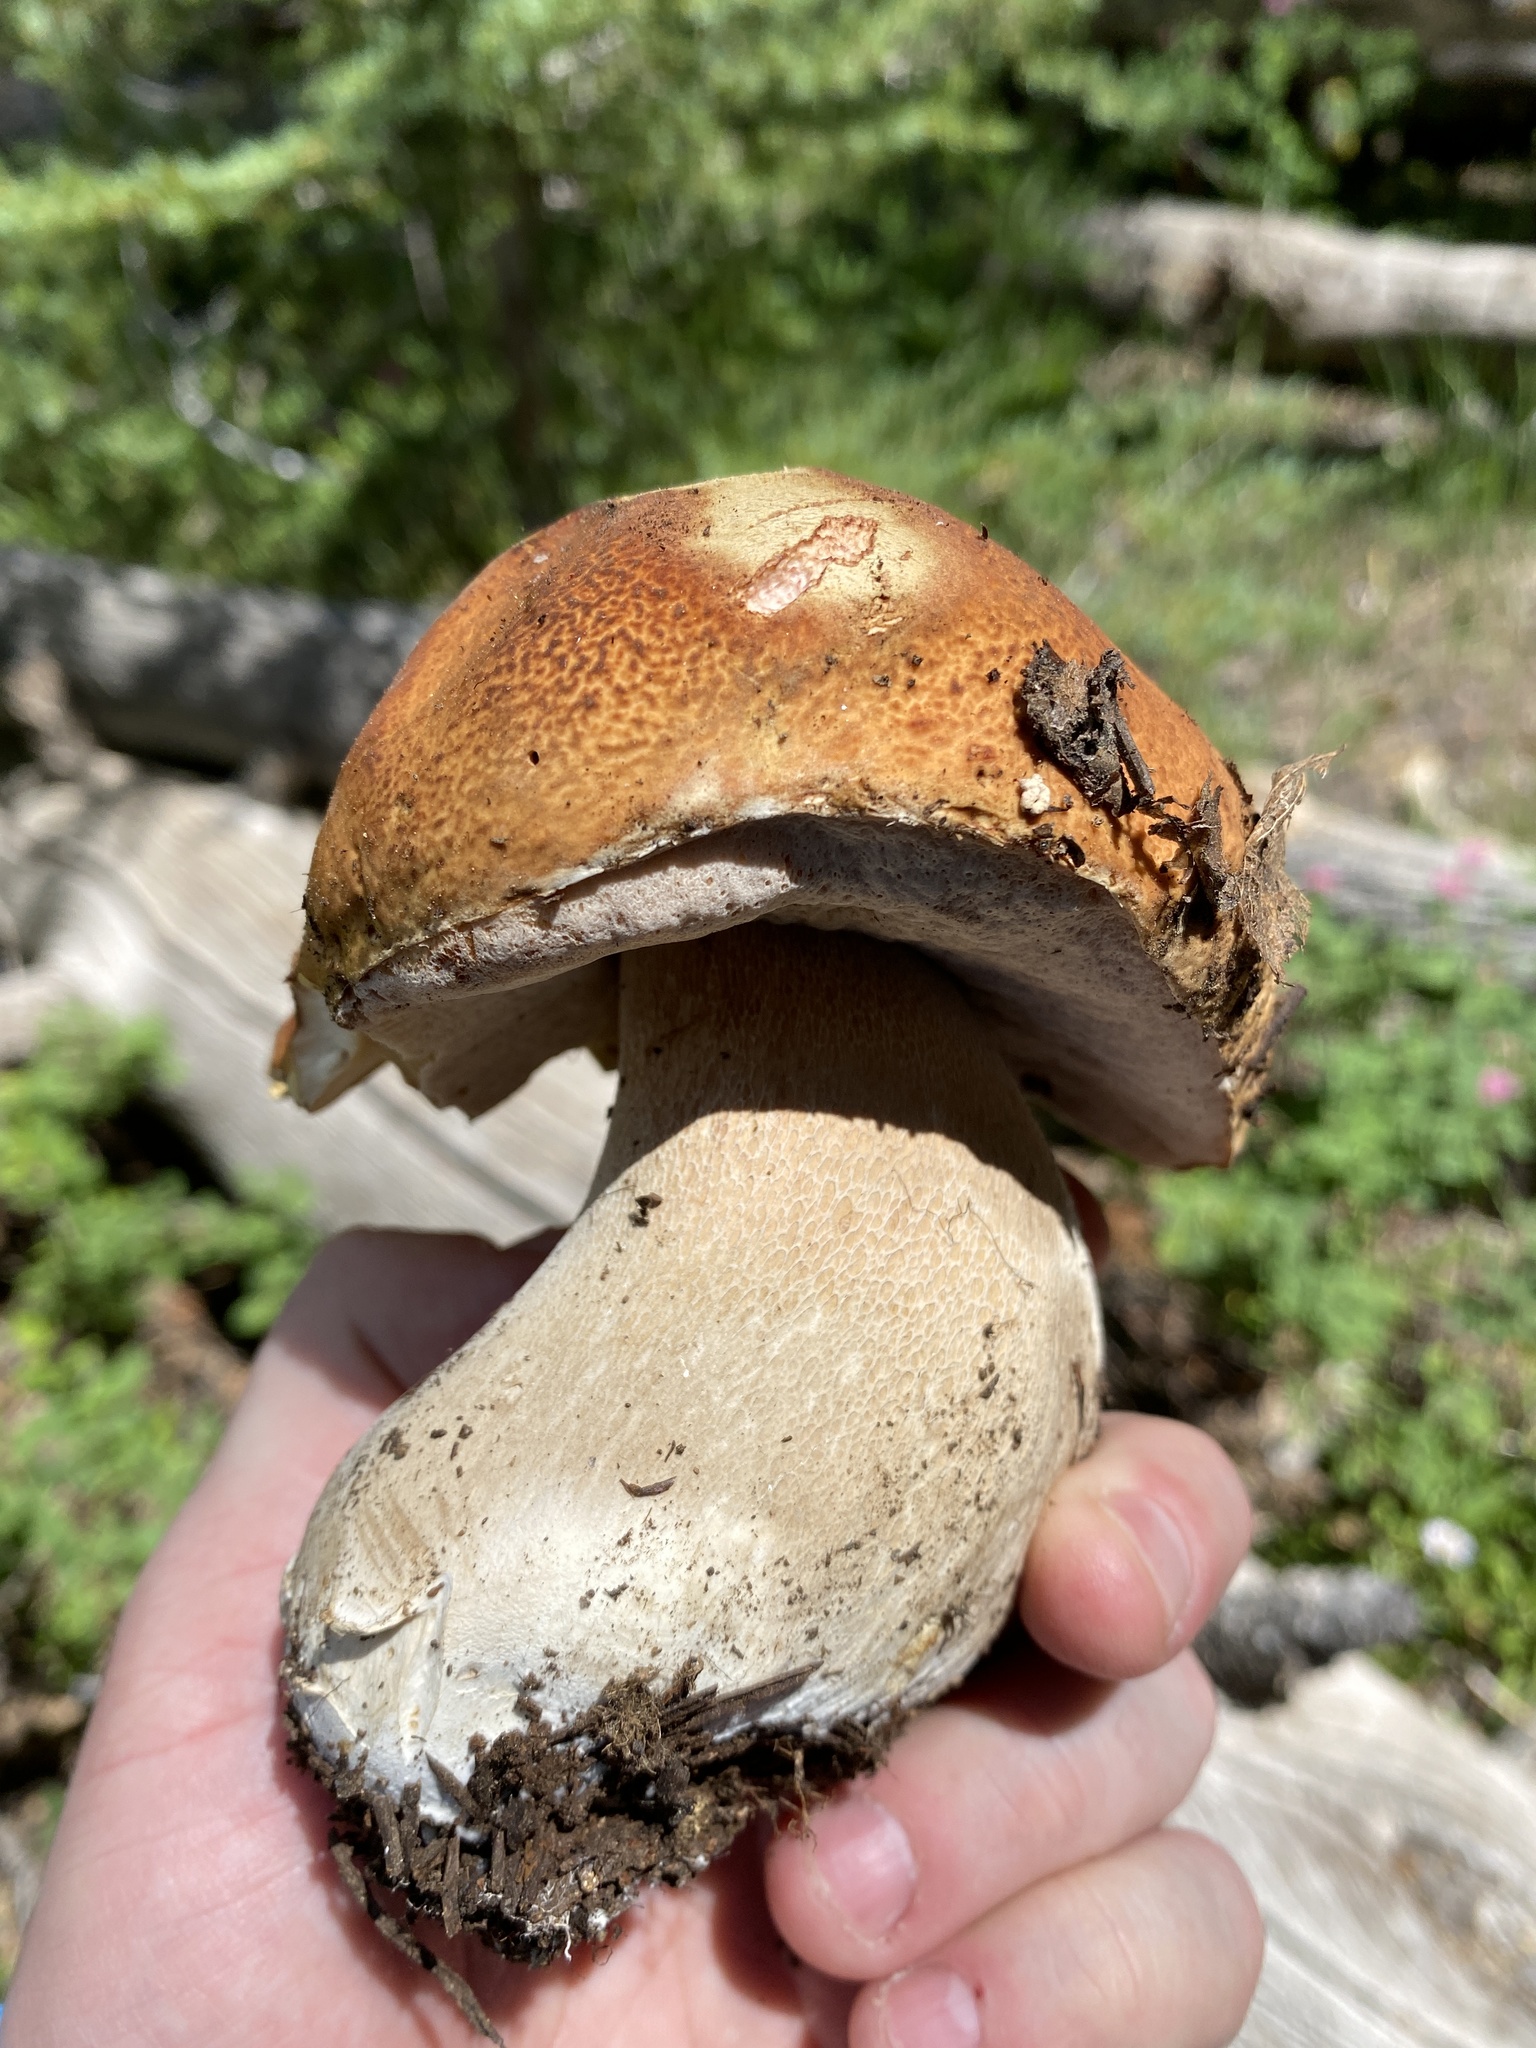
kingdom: Fungi
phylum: Basidiomycota
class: Agaricomycetes
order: Boletales
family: Boletaceae
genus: Boletus
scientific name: Boletus edulis
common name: Cep
